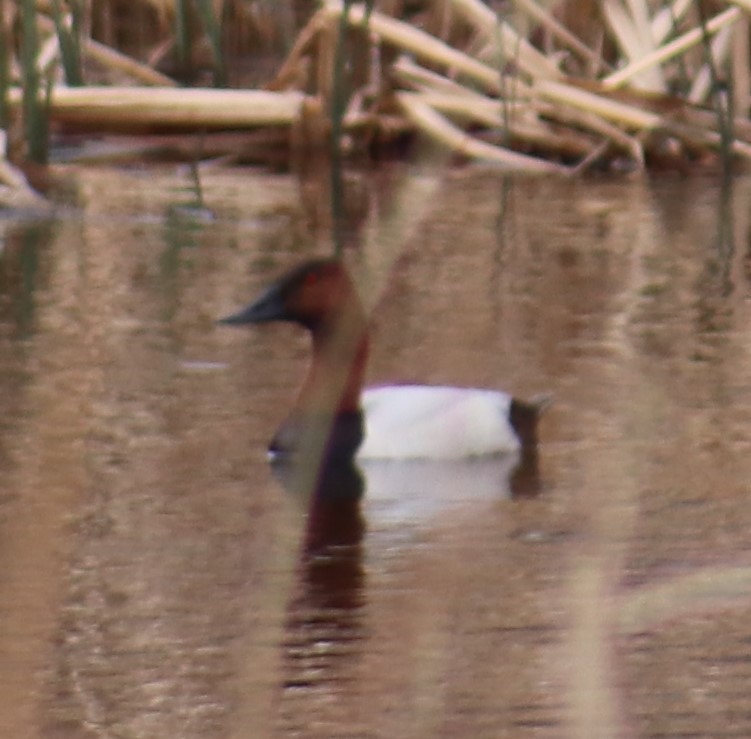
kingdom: Animalia
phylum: Chordata
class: Aves
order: Anseriformes
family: Anatidae
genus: Aythya
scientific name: Aythya valisineria
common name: Canvasback
